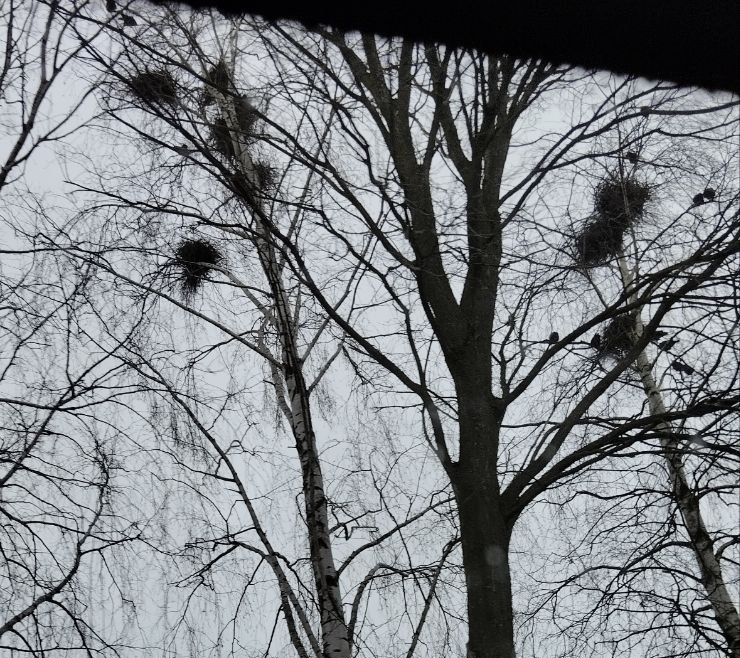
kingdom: Animalia
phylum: Chordata
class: Aves
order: Passeriformes
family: Corvidae
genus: Corvus
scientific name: Corvus frugilegus
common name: Rook
